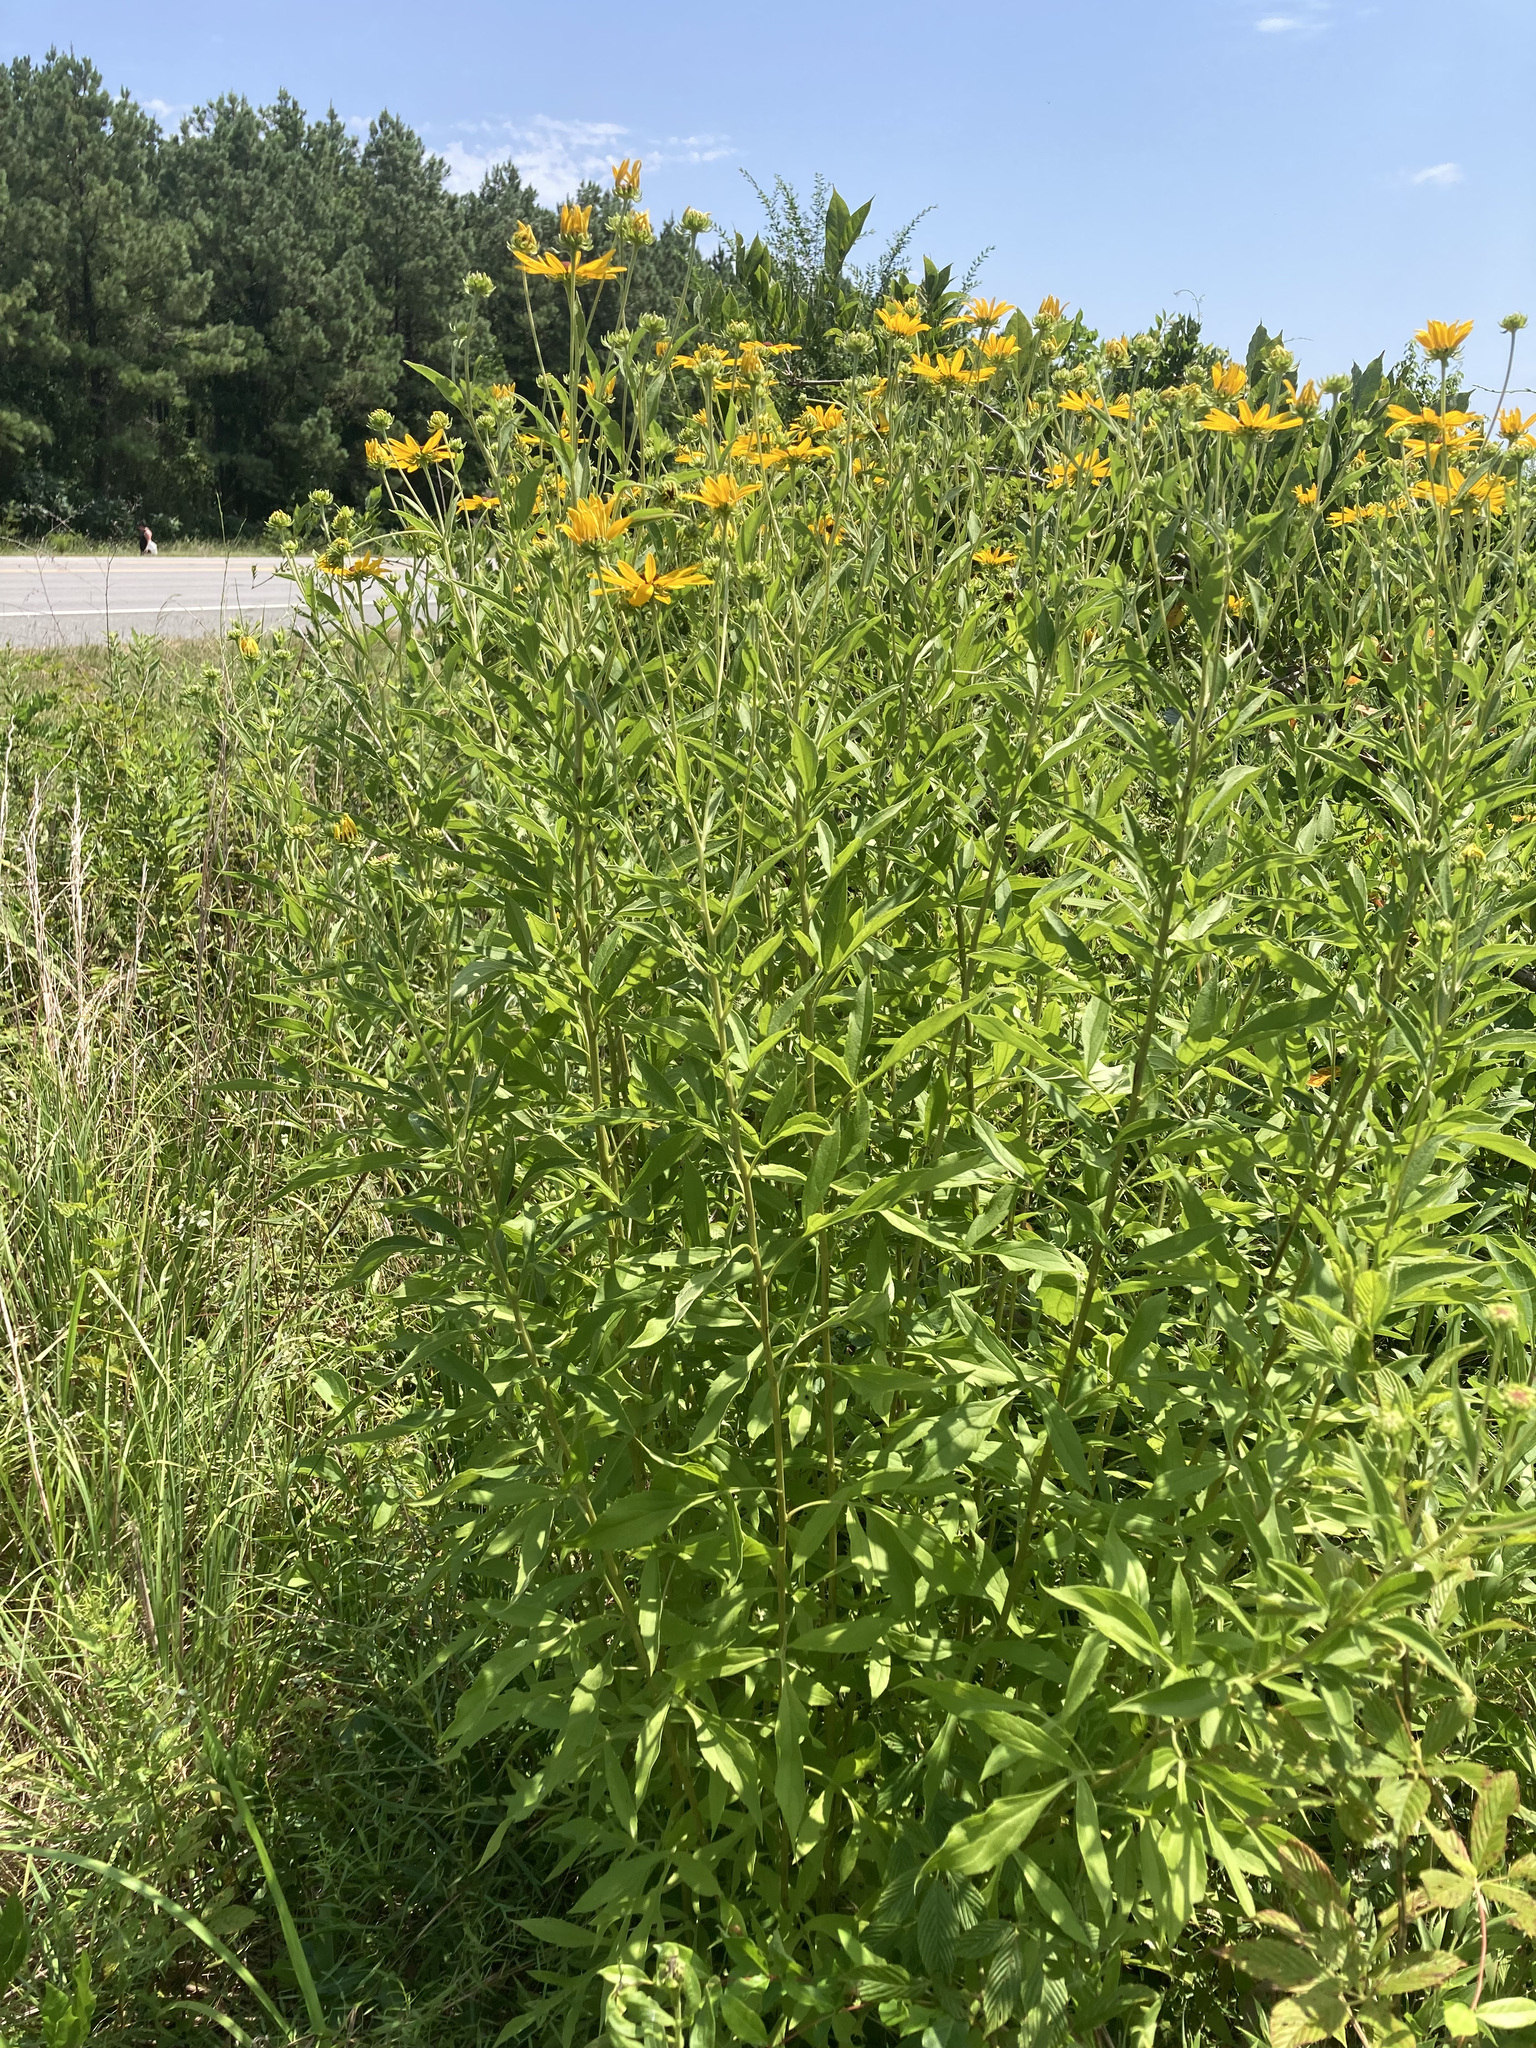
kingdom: Plantae
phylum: Tracheophyta
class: Magnoliopsida
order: Asterales
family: Asteraceae
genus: Rudbeckia
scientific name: Rudbeckia subtomentosa
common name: Sweet coneflower
